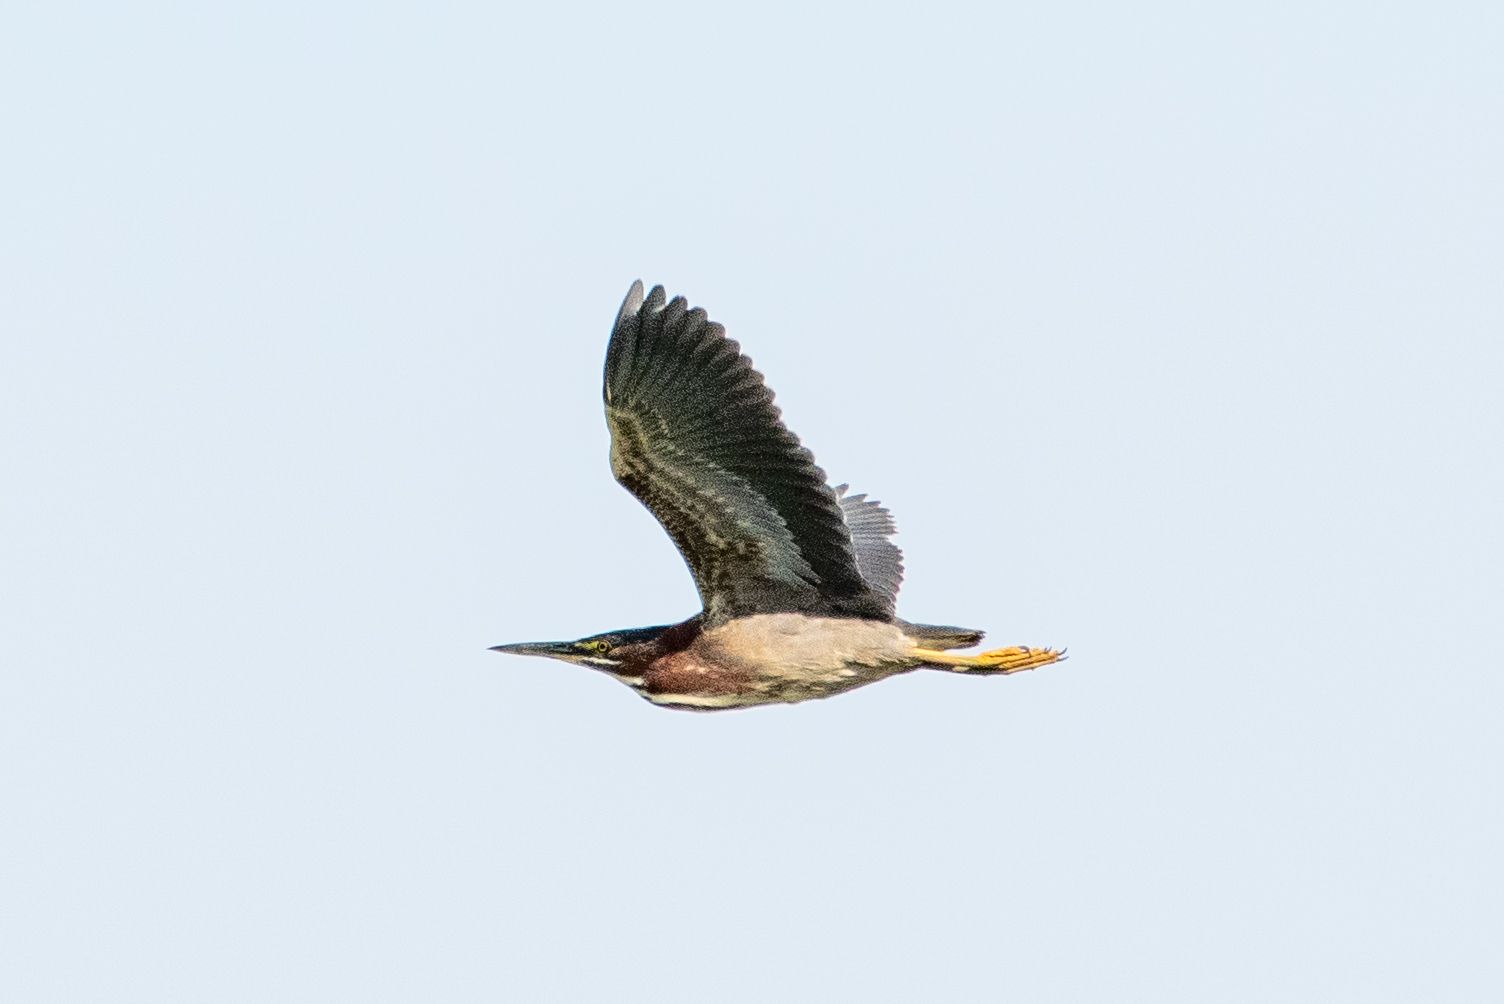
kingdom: Animalia
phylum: Chordata
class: Aves
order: Pelecaniformes
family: Ardeidae
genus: Butorides
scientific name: Butorides virescens
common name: Green heron
